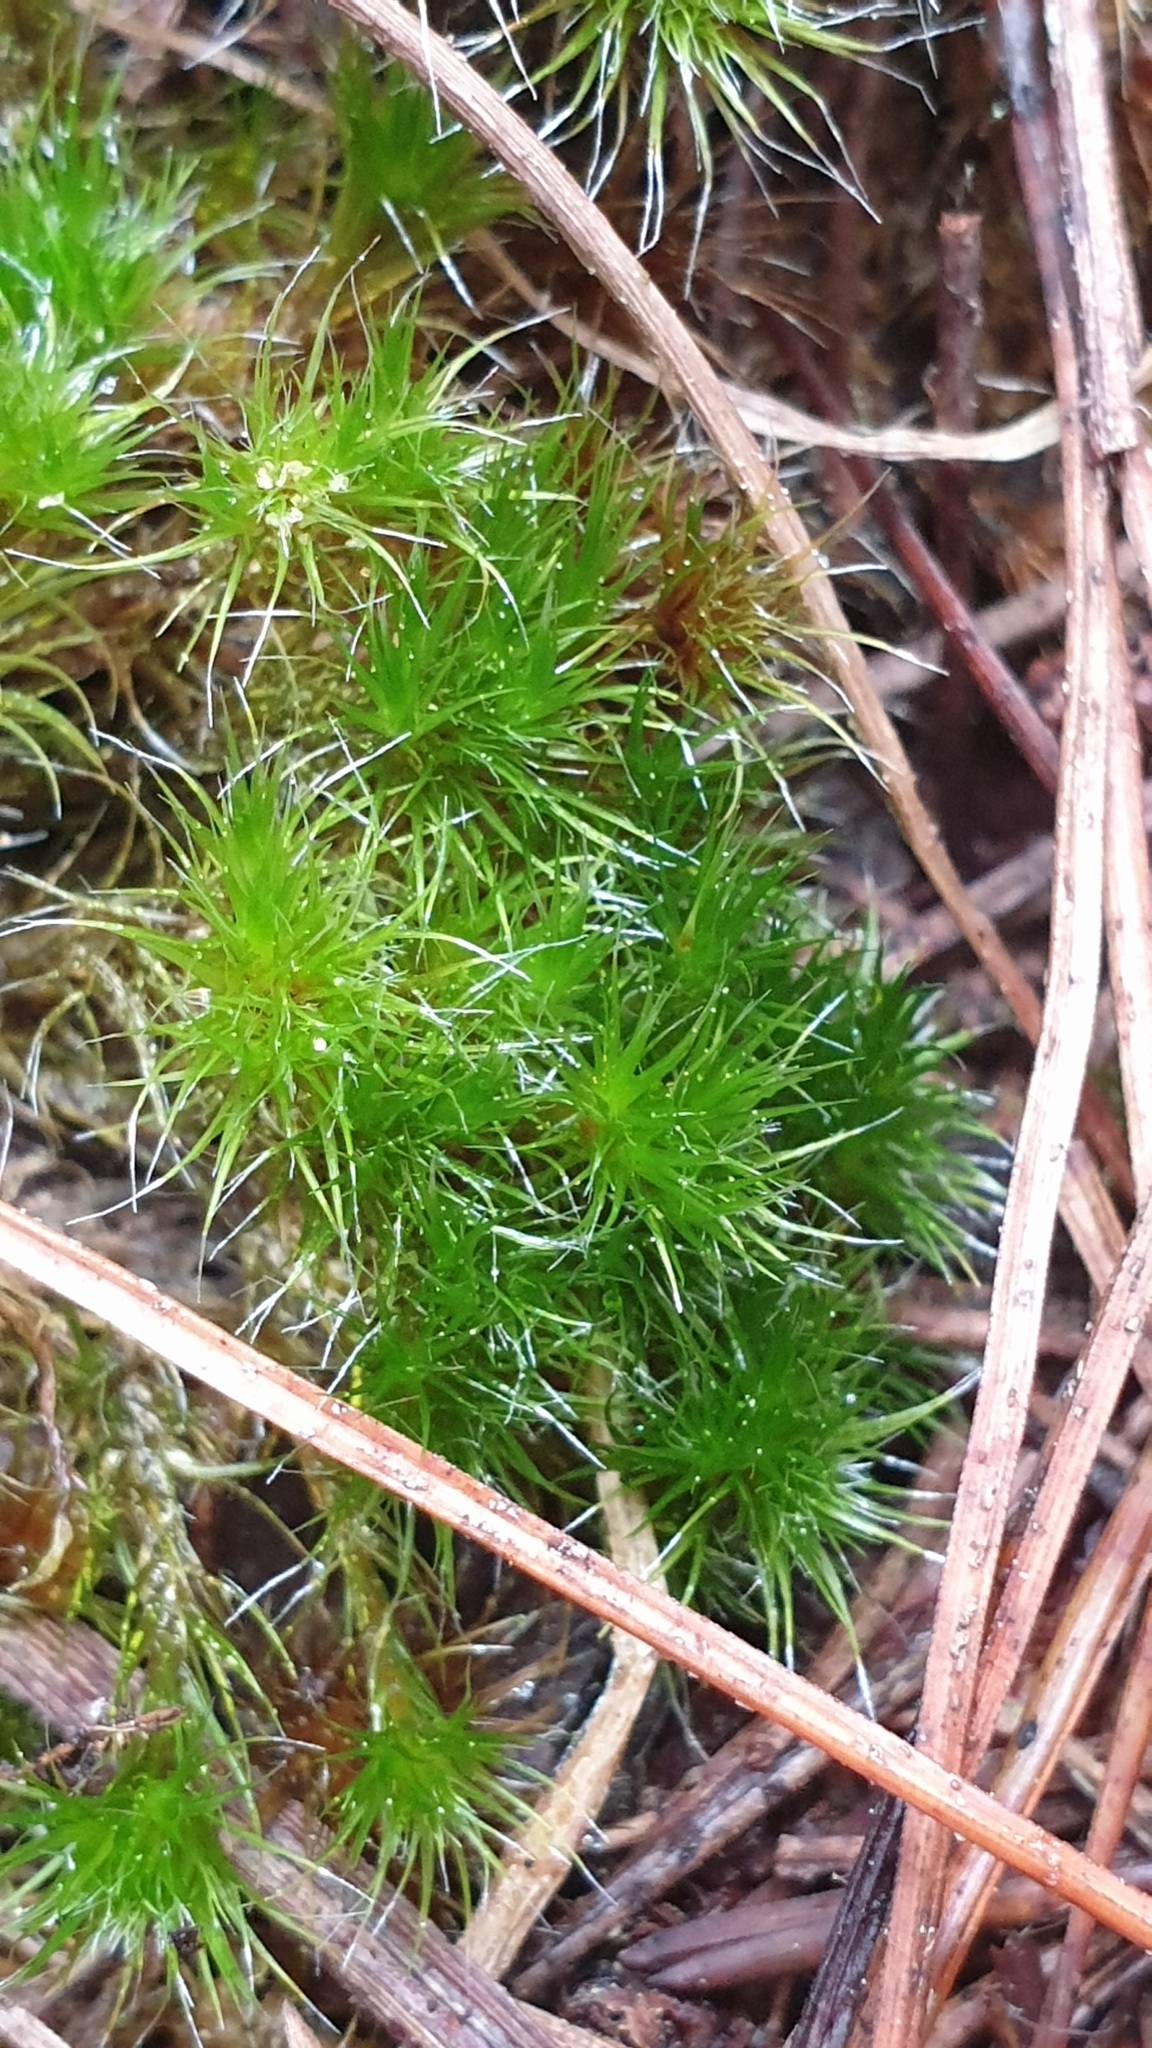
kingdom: Plantae
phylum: Bryophyta
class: Bryopsida
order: Dicranales
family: Leucobryaceae
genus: Campylopus
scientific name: Campylopus introflexus
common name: Heath star moss
